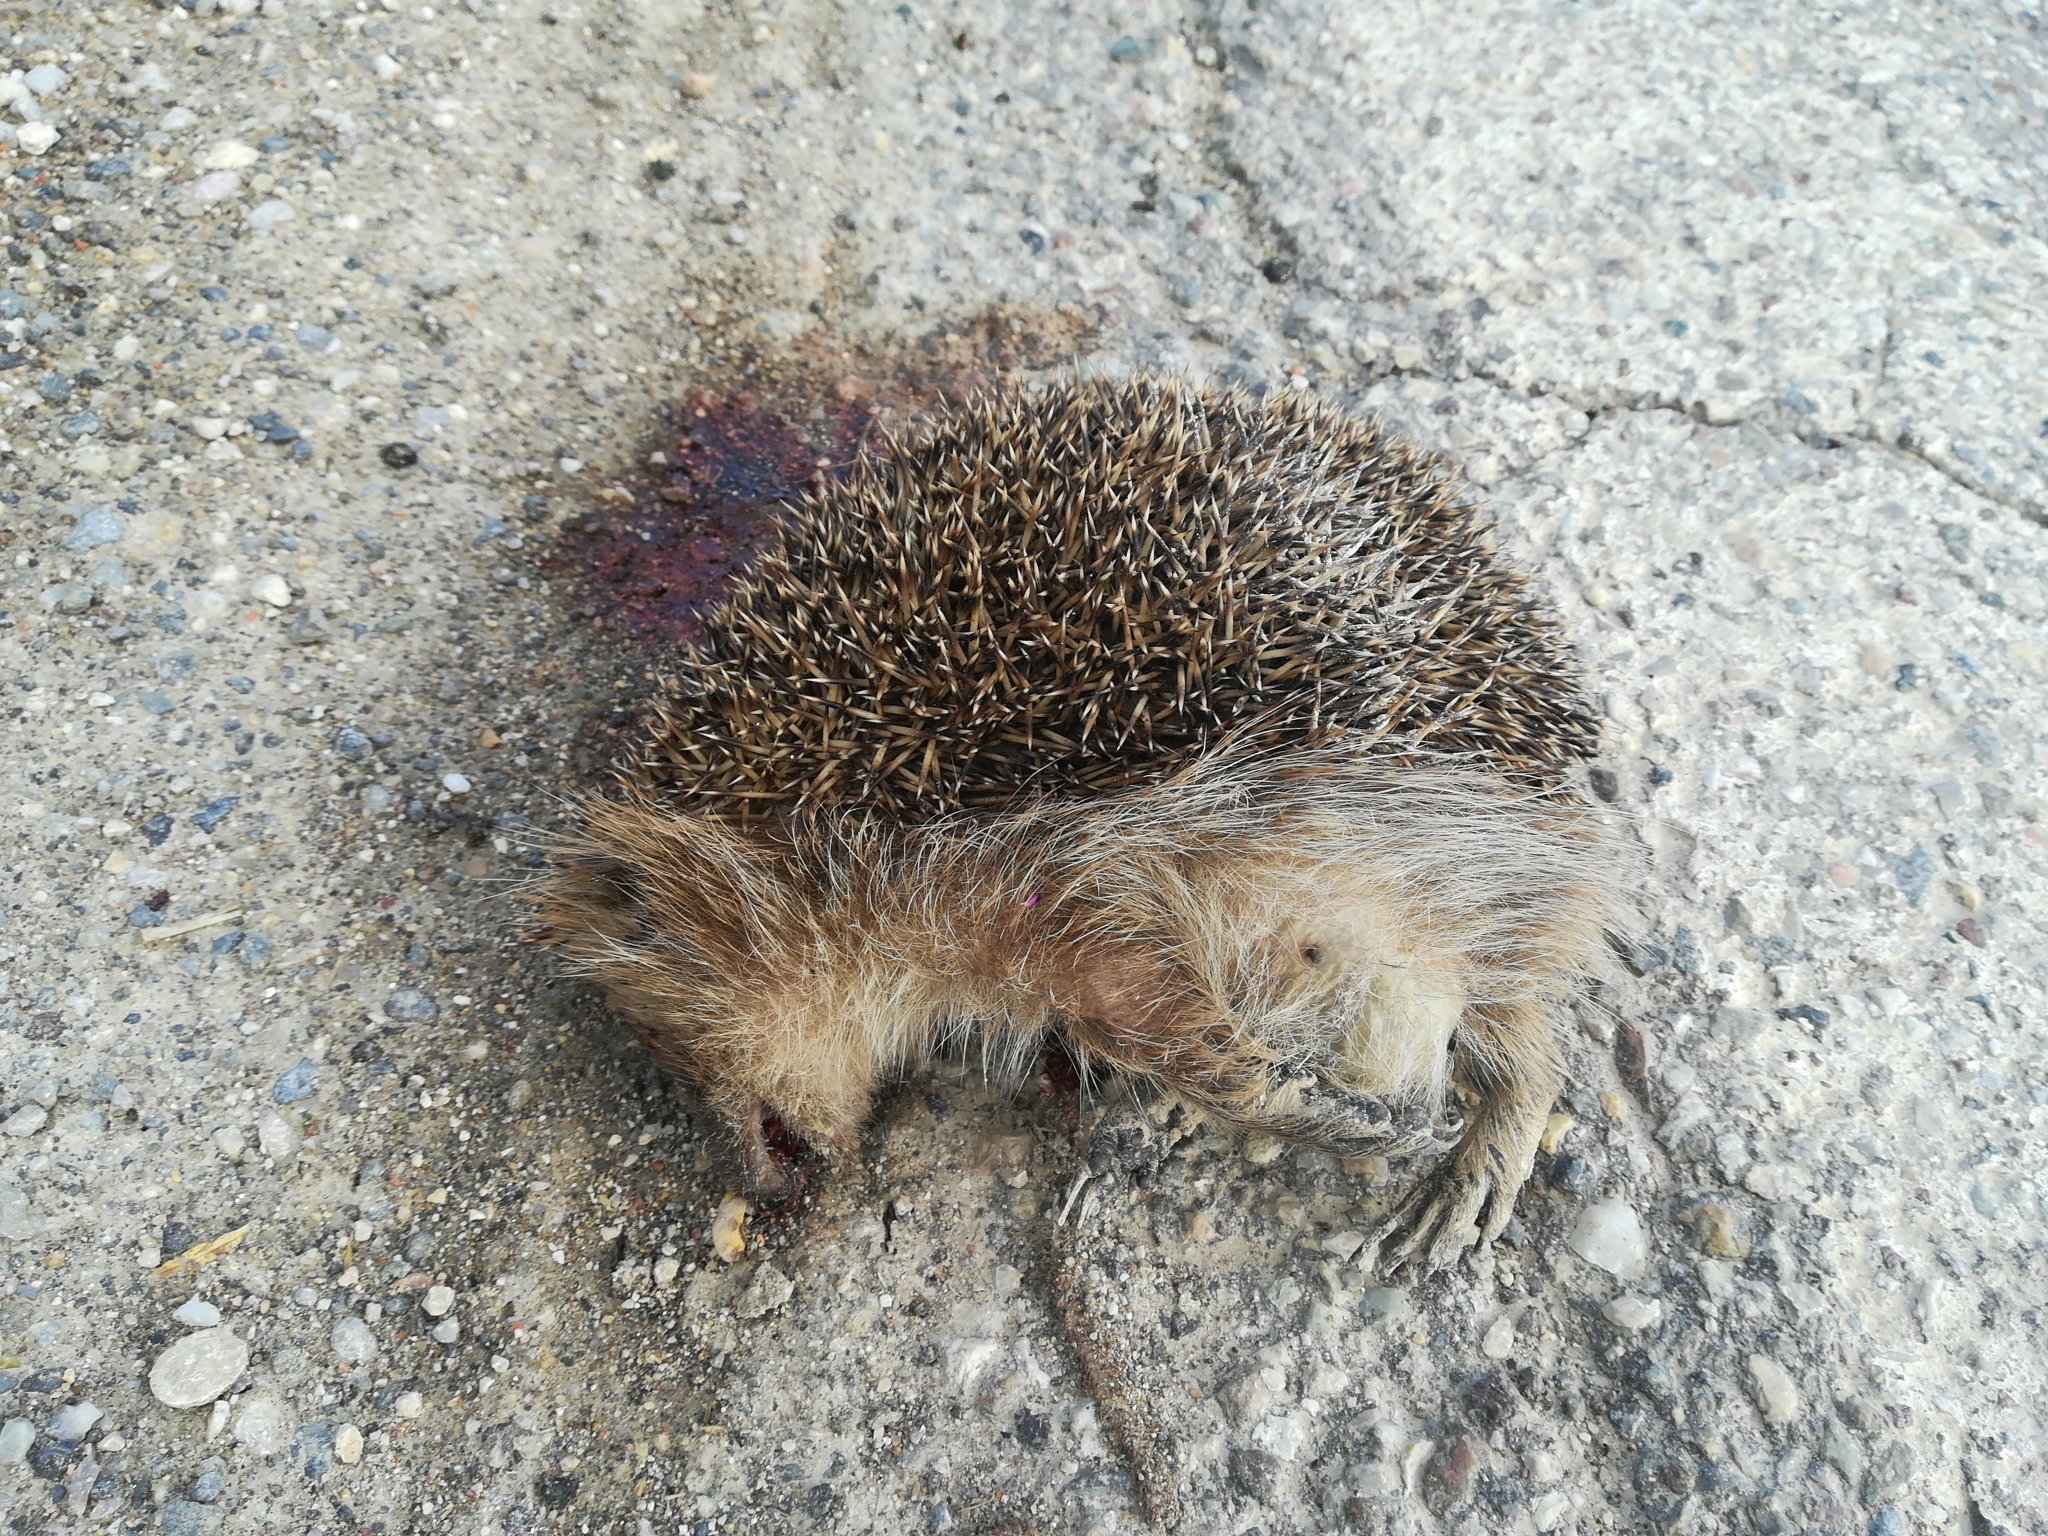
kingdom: Animalia
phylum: Chordata
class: Mammalia
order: Erinaceomorpha
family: Erinaceidae
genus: Erinaceus
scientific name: Erinaceus europaeus
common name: West european hedgehog
